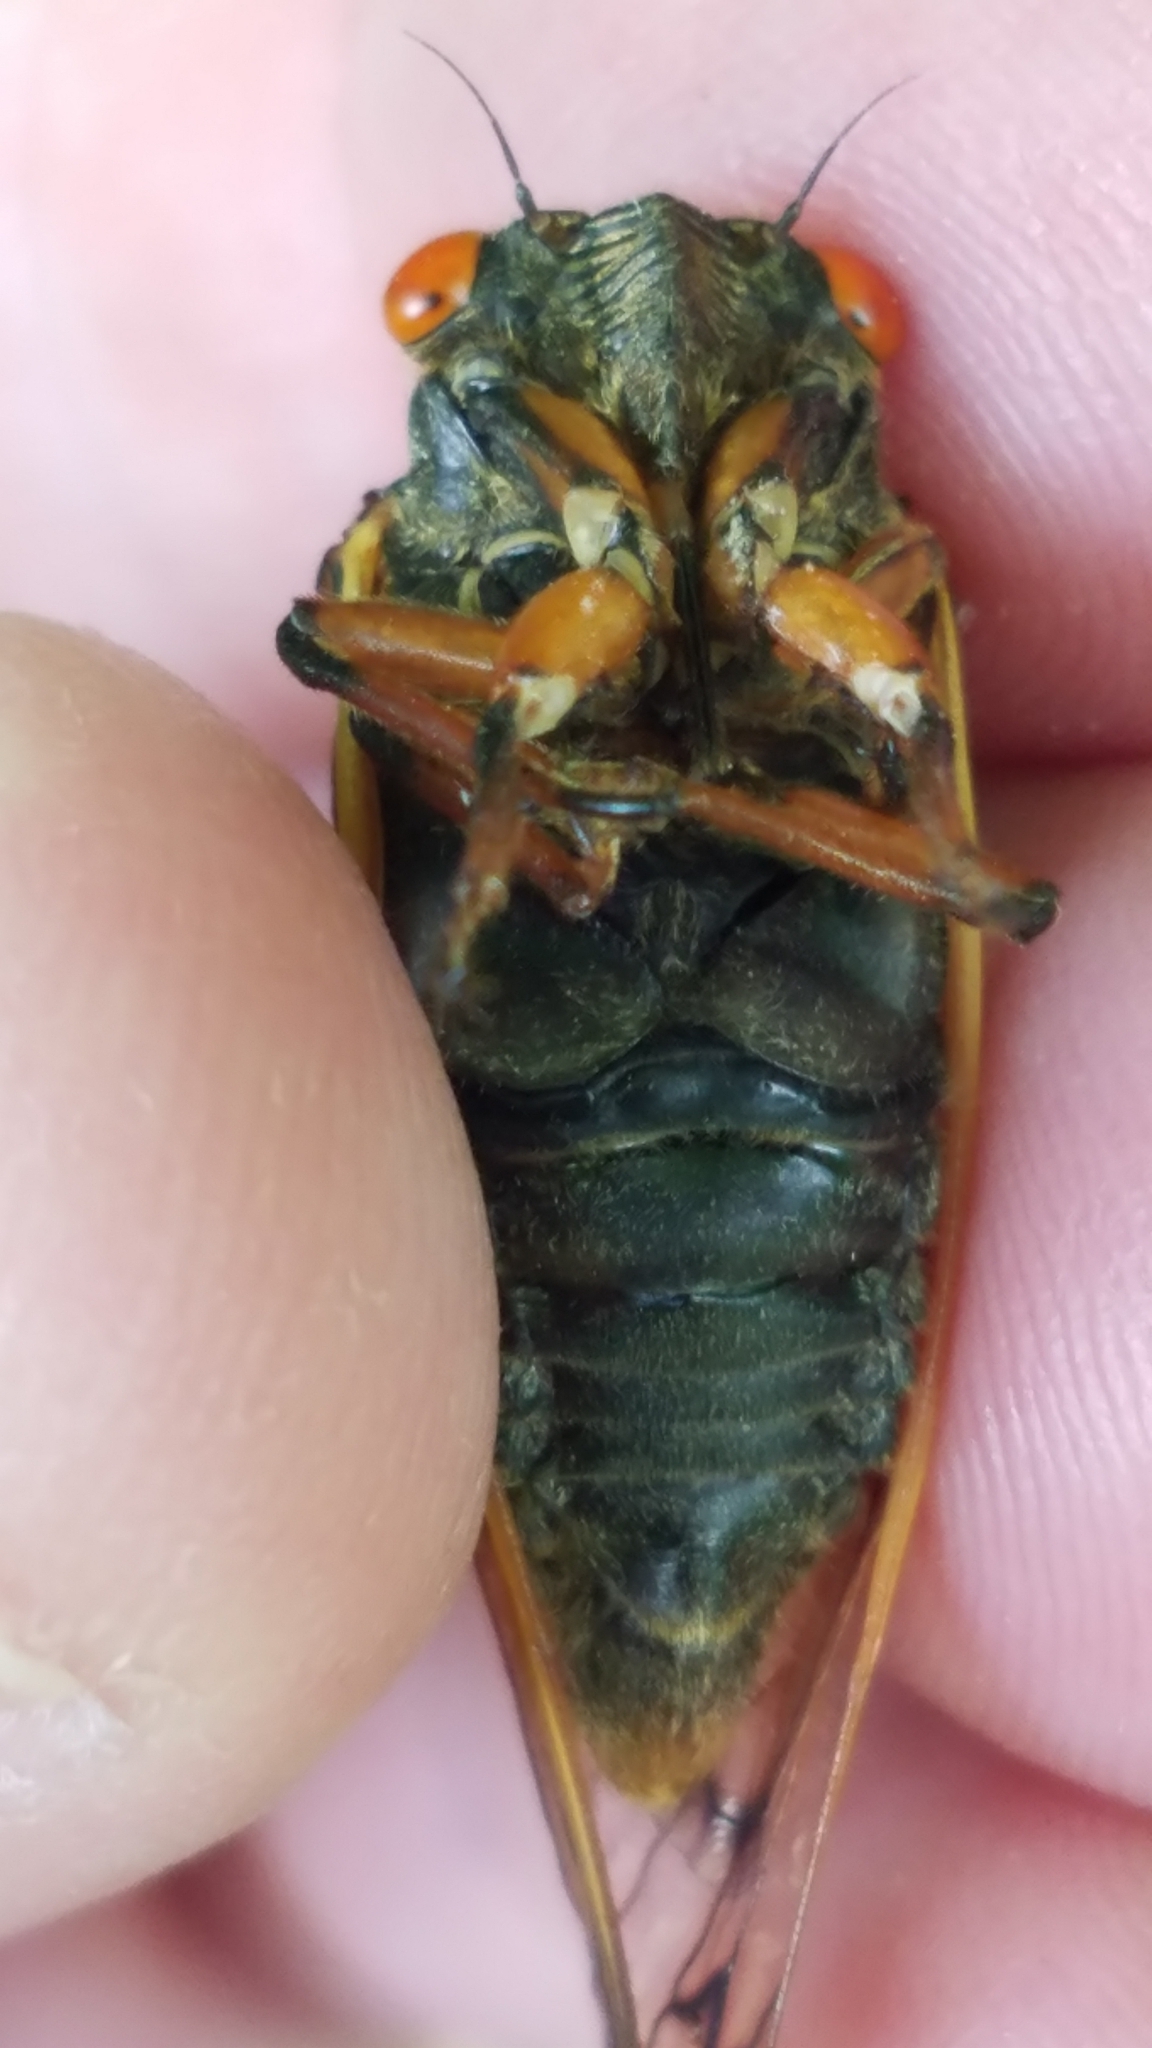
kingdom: Animalia
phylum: Arthropoda
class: Insecta
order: Hemiptera
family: Cicadidae
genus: Magicicada
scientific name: Magicicada cassini
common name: Cassin's 17-year cicada
